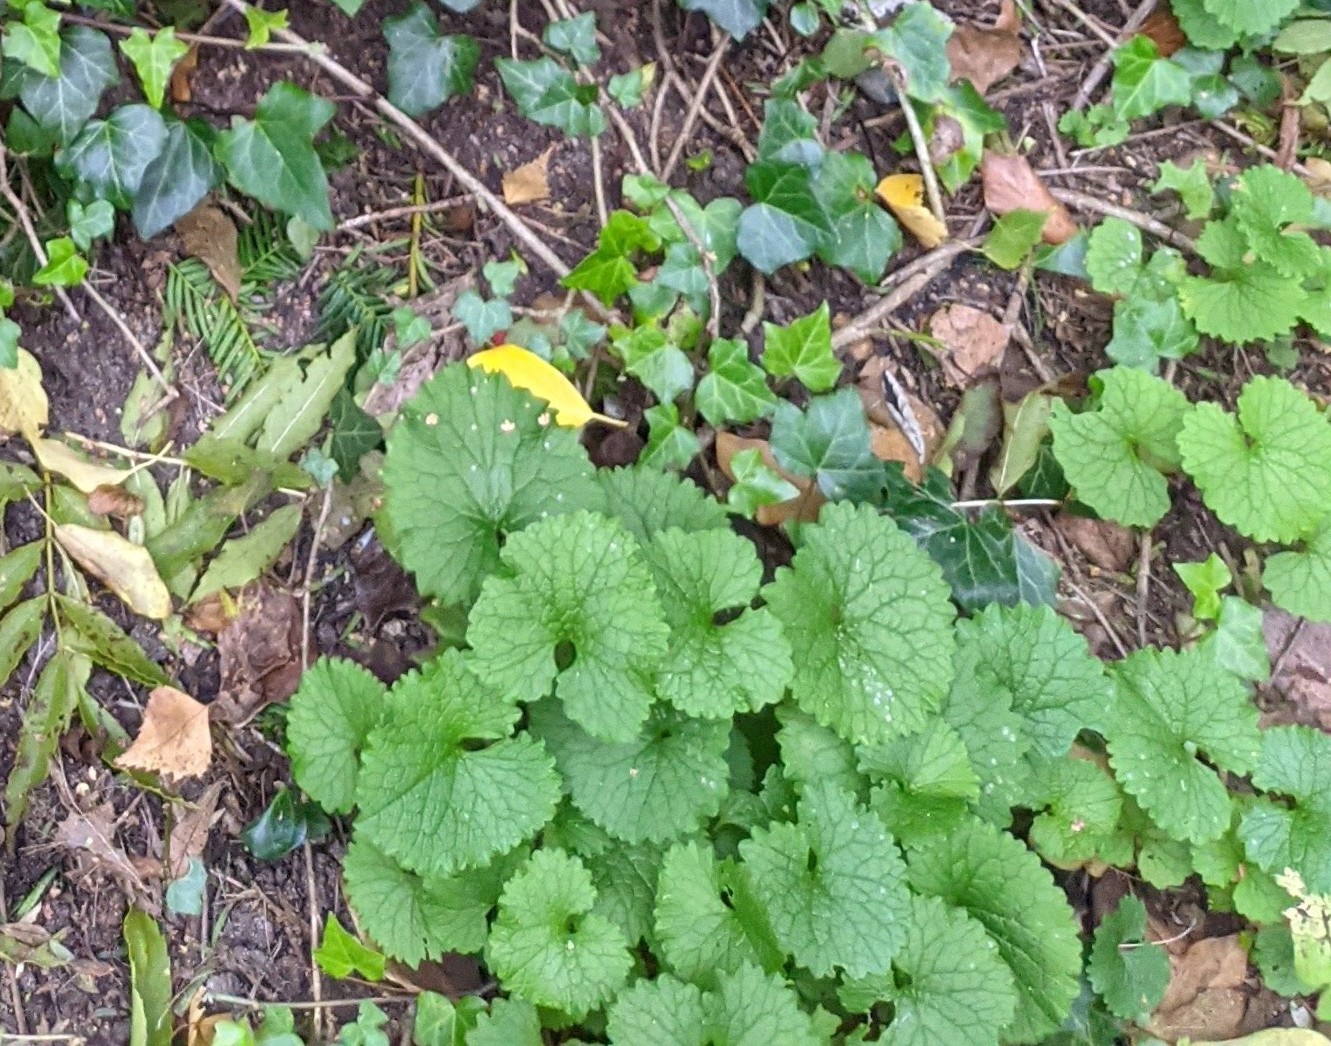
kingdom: Plantae
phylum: Tracheophyta
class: Magnoliopsida
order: Brassicales
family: Brassicaceae
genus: Alliaria
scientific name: Alliaria petiolata
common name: Garlic mustard
